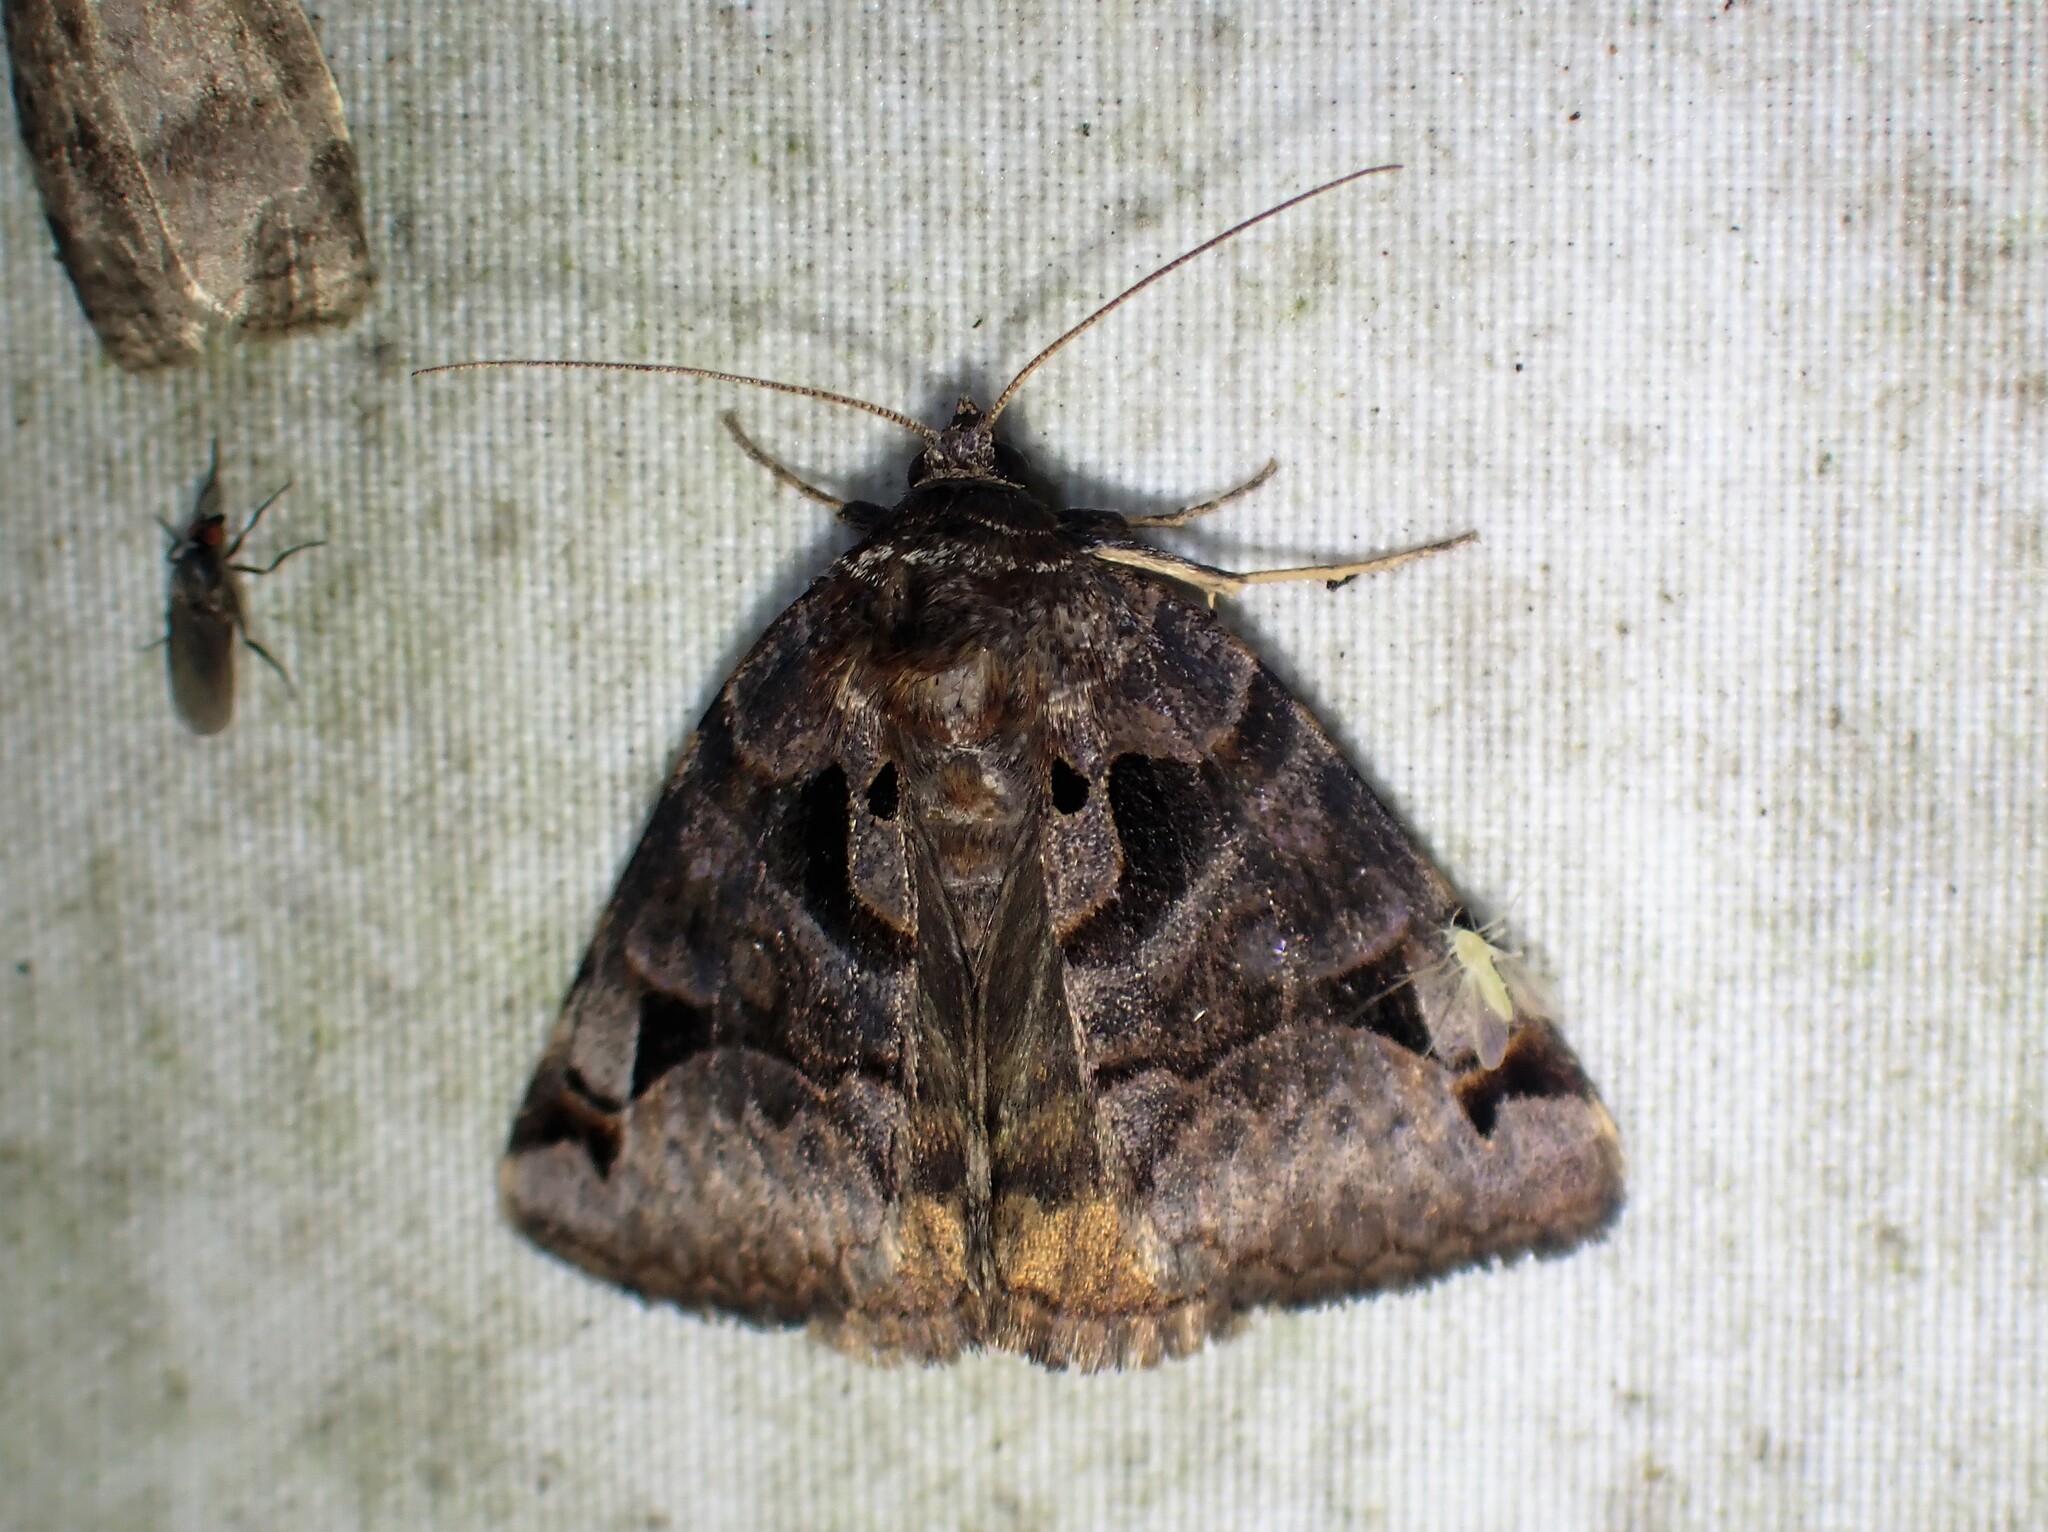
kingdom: Animalia
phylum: Arthropoda
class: Insecta
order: Lepidoptera
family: Erebidae
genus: Euclidia
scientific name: Euclidia cuspidea
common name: Toothed somberwing
